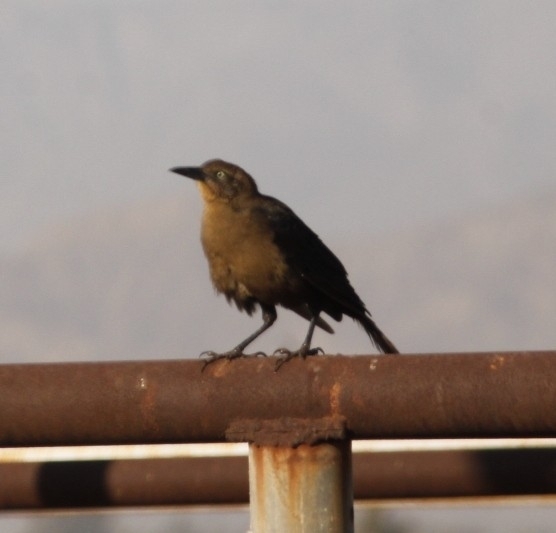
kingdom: Animalia
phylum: Chordata
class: Aves
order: Passeriformes
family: Icteridae
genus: Quiscalus
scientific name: Quiscalus mexicanus
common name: Great-tailed grackle
